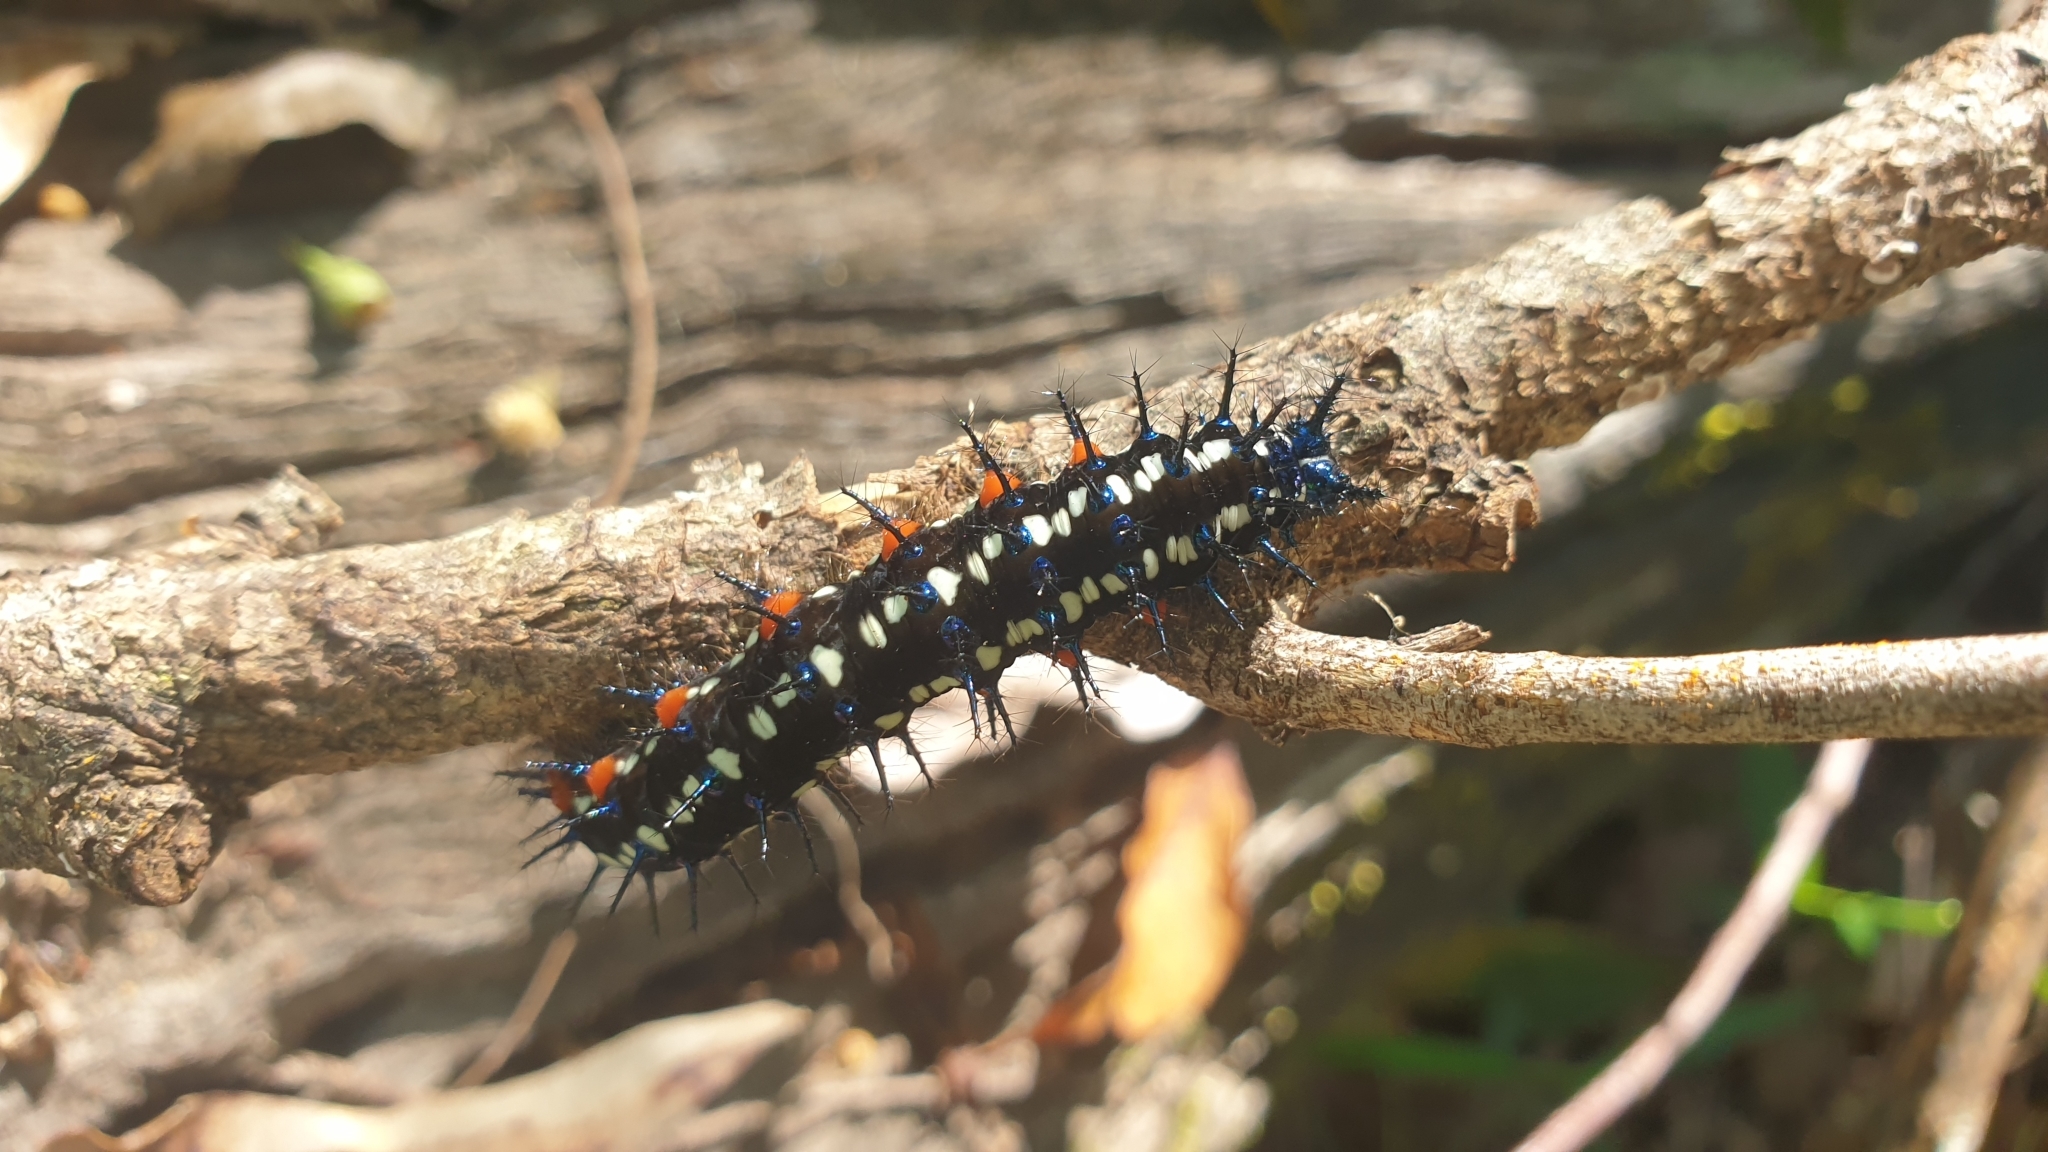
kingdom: Animalia
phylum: Arthropoda
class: Insecta
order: Lepidoptera
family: Nymphalidae
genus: Doleschallia
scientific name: Doleschallia bisaltide
